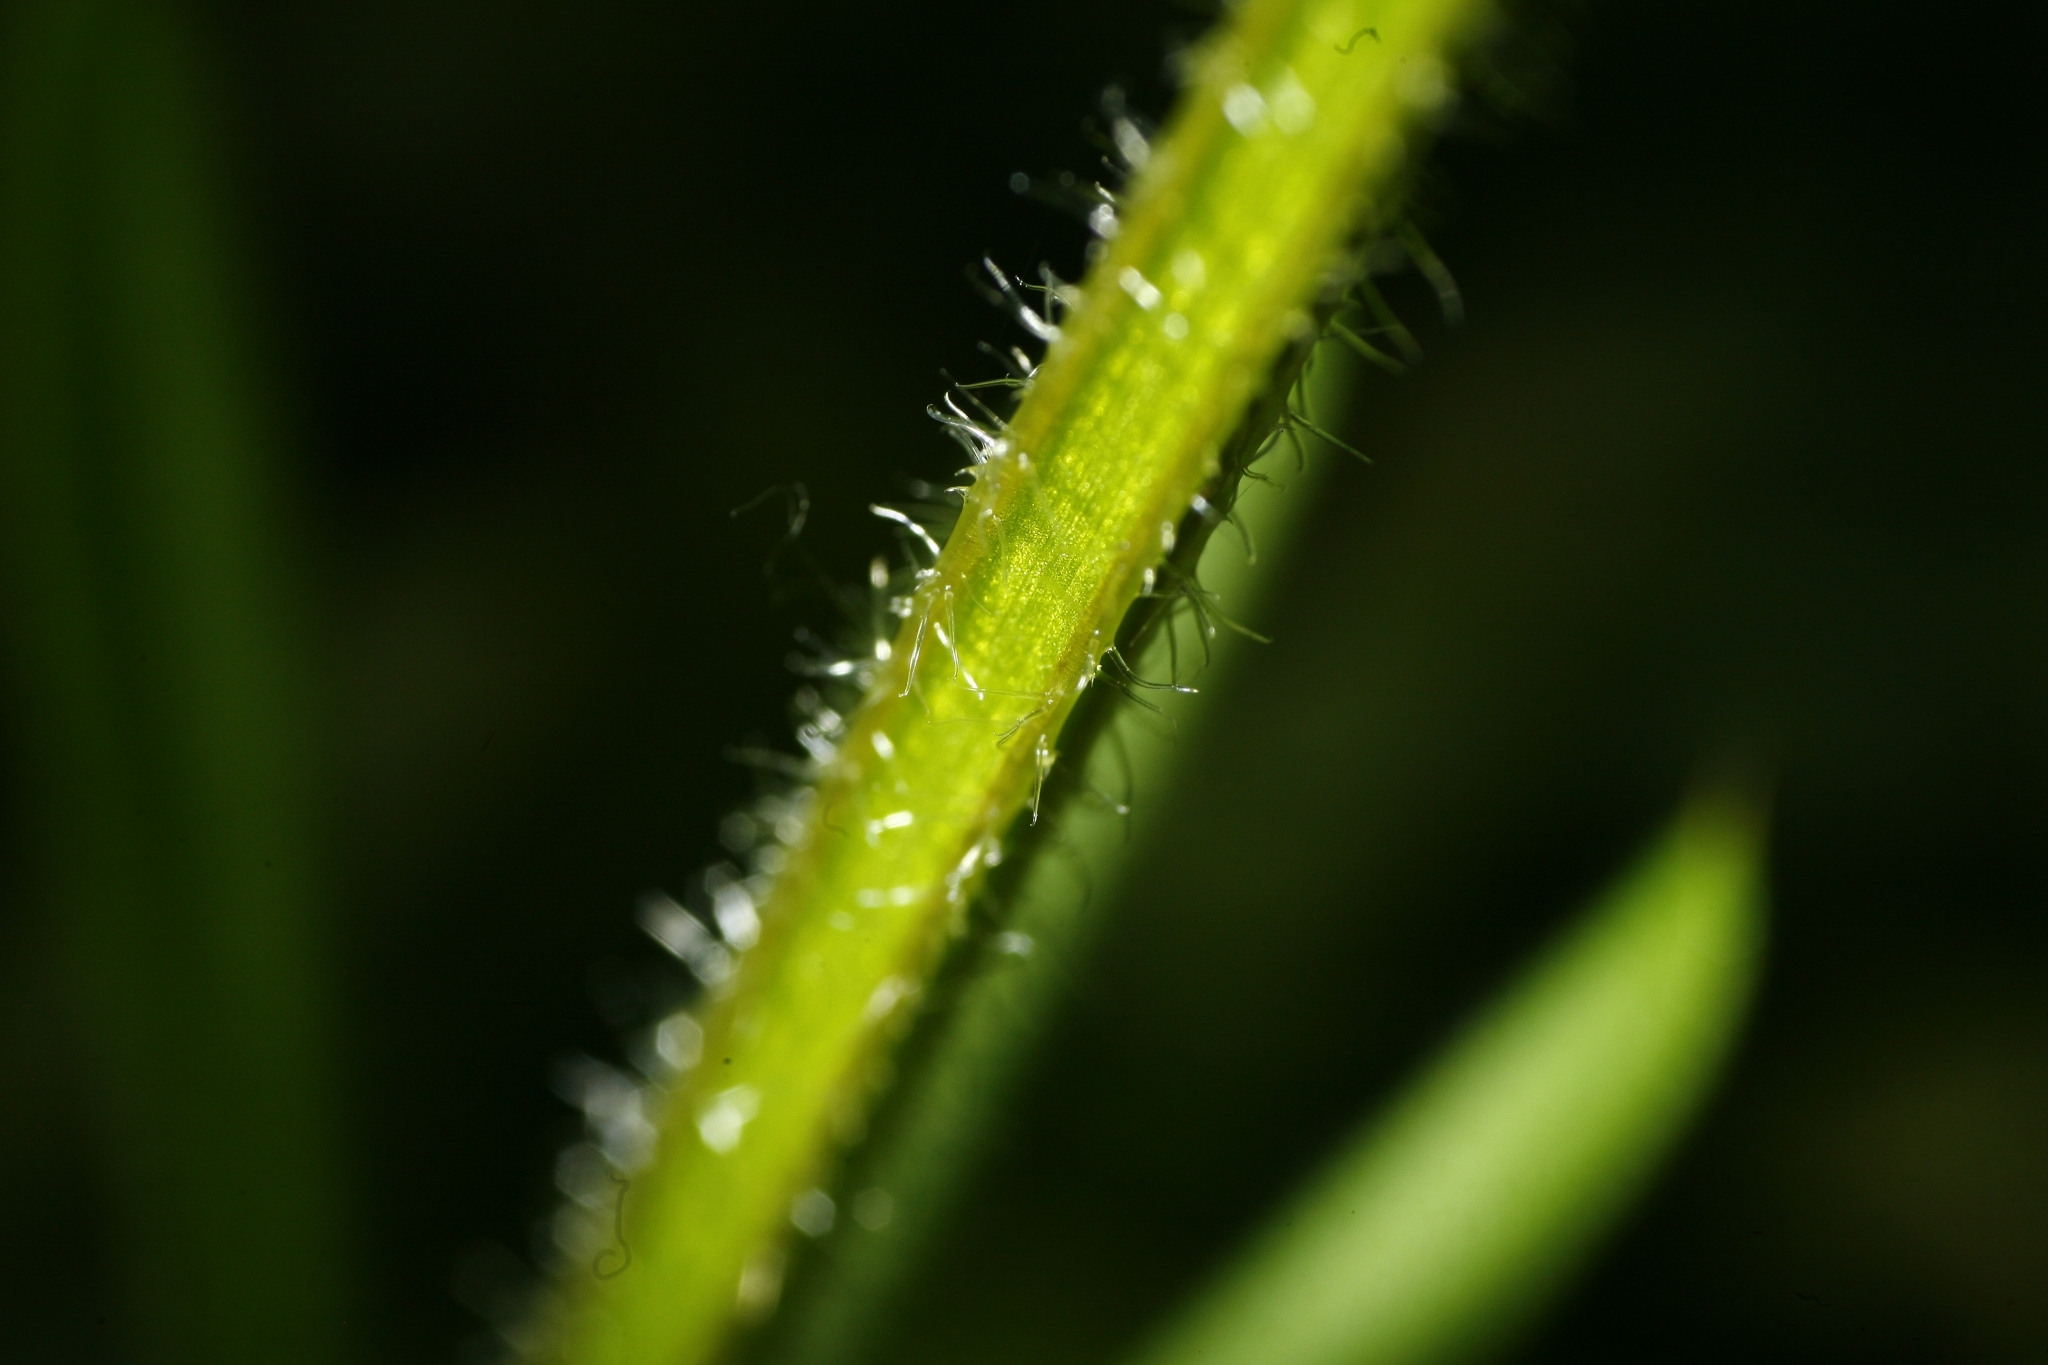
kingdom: Plantae
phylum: Tracheophyta
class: Magnoliopsida
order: Gentianales
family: Rubiaceae
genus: Galium
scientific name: Galium aparine
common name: Cleavers
